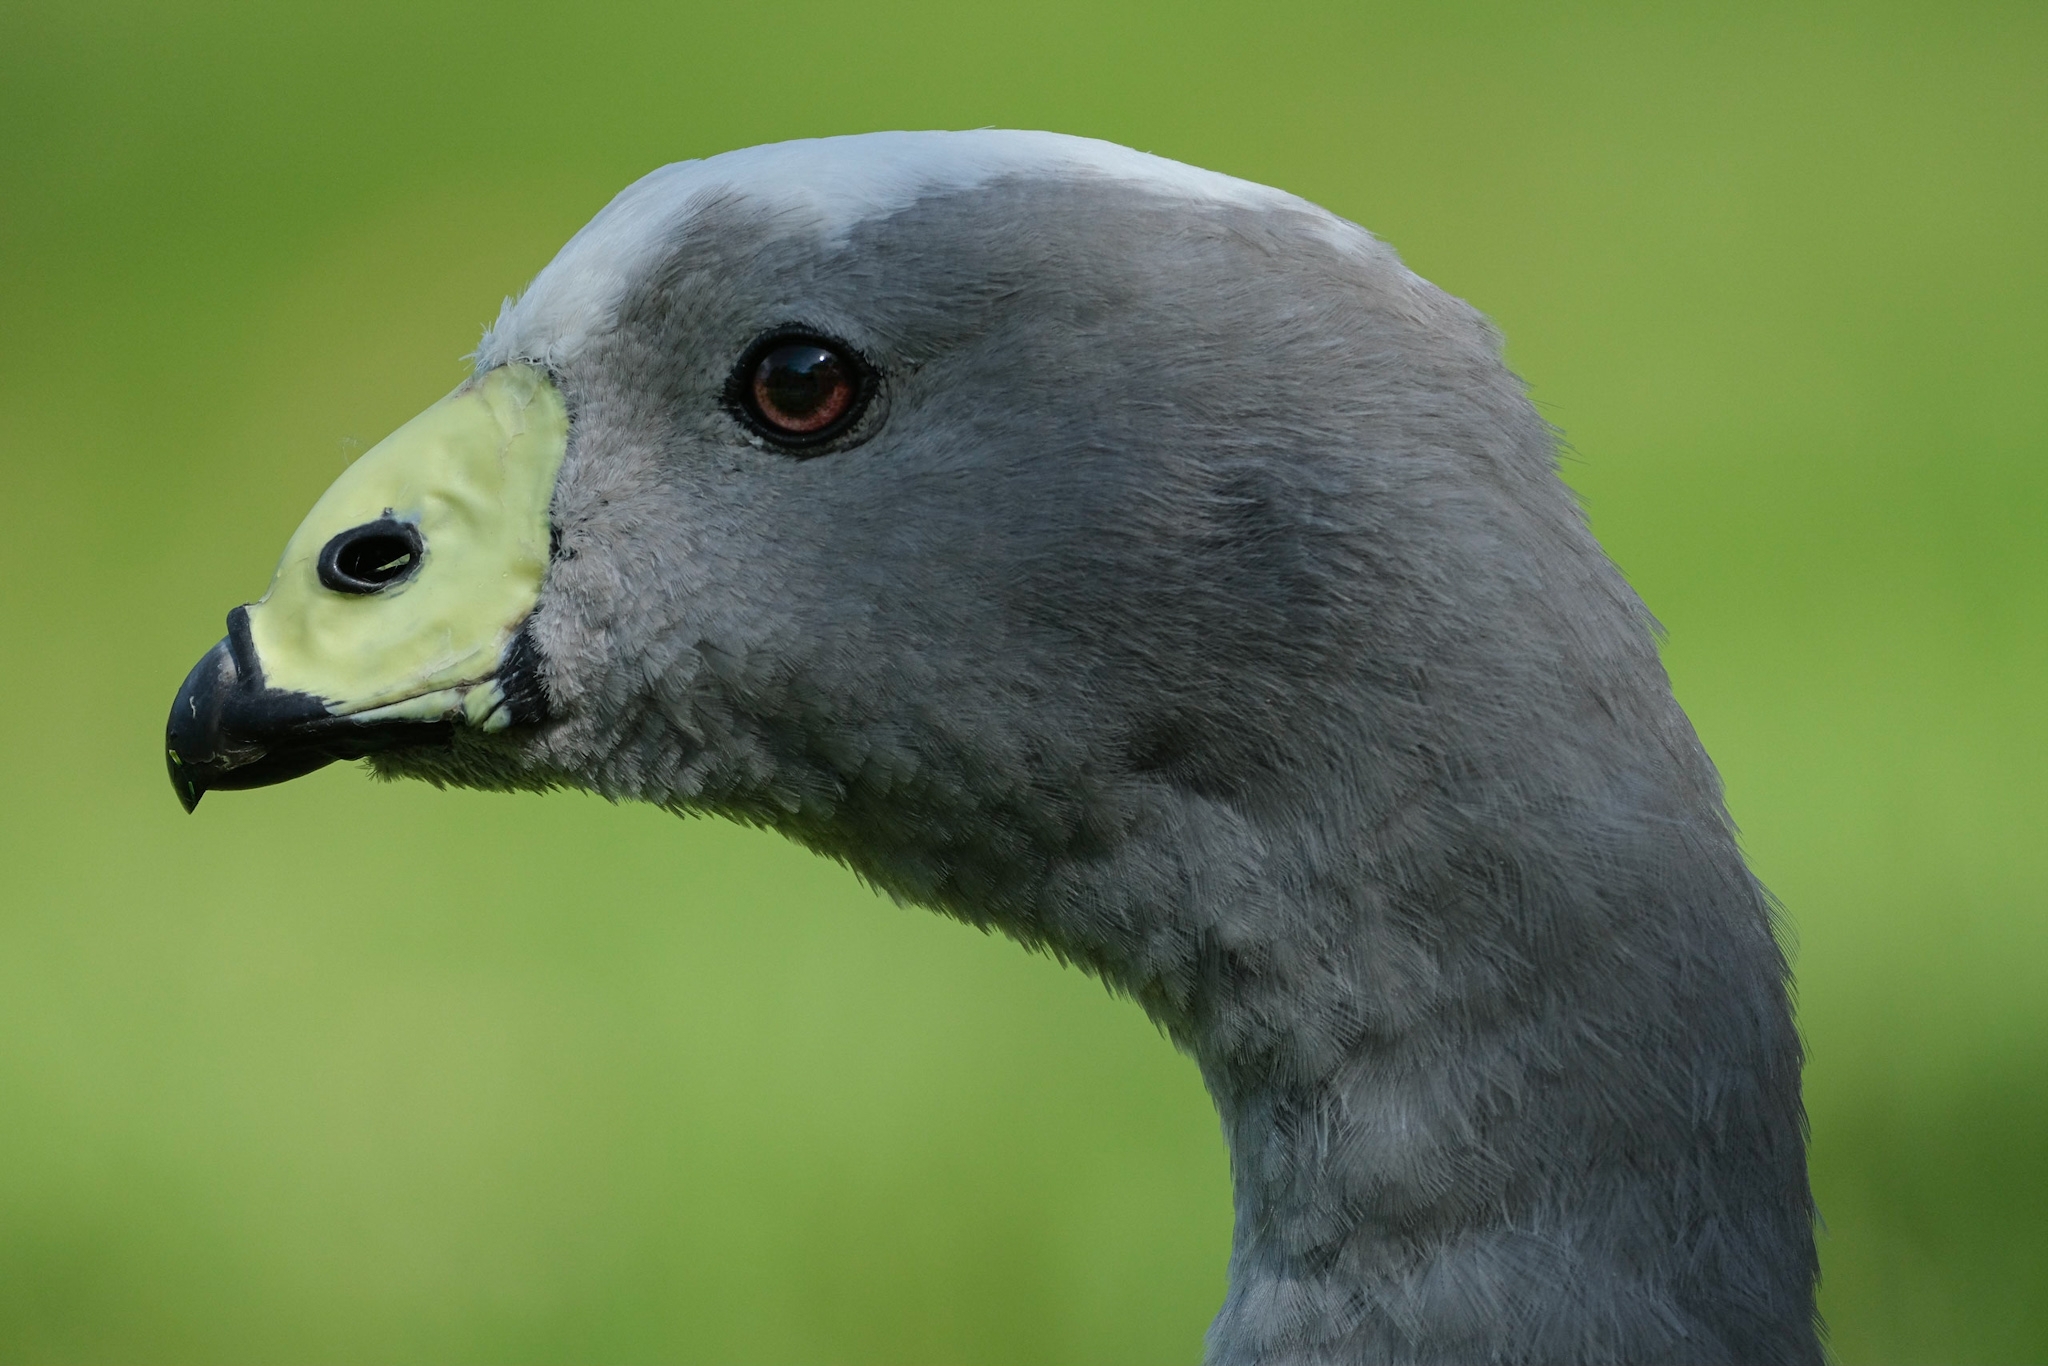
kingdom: Animalia
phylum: Chordata
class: Aves
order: Anseriformes
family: Anatidae
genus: Cereopsis
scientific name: Cereopsis novaehollandiae
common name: Cape barren goose
